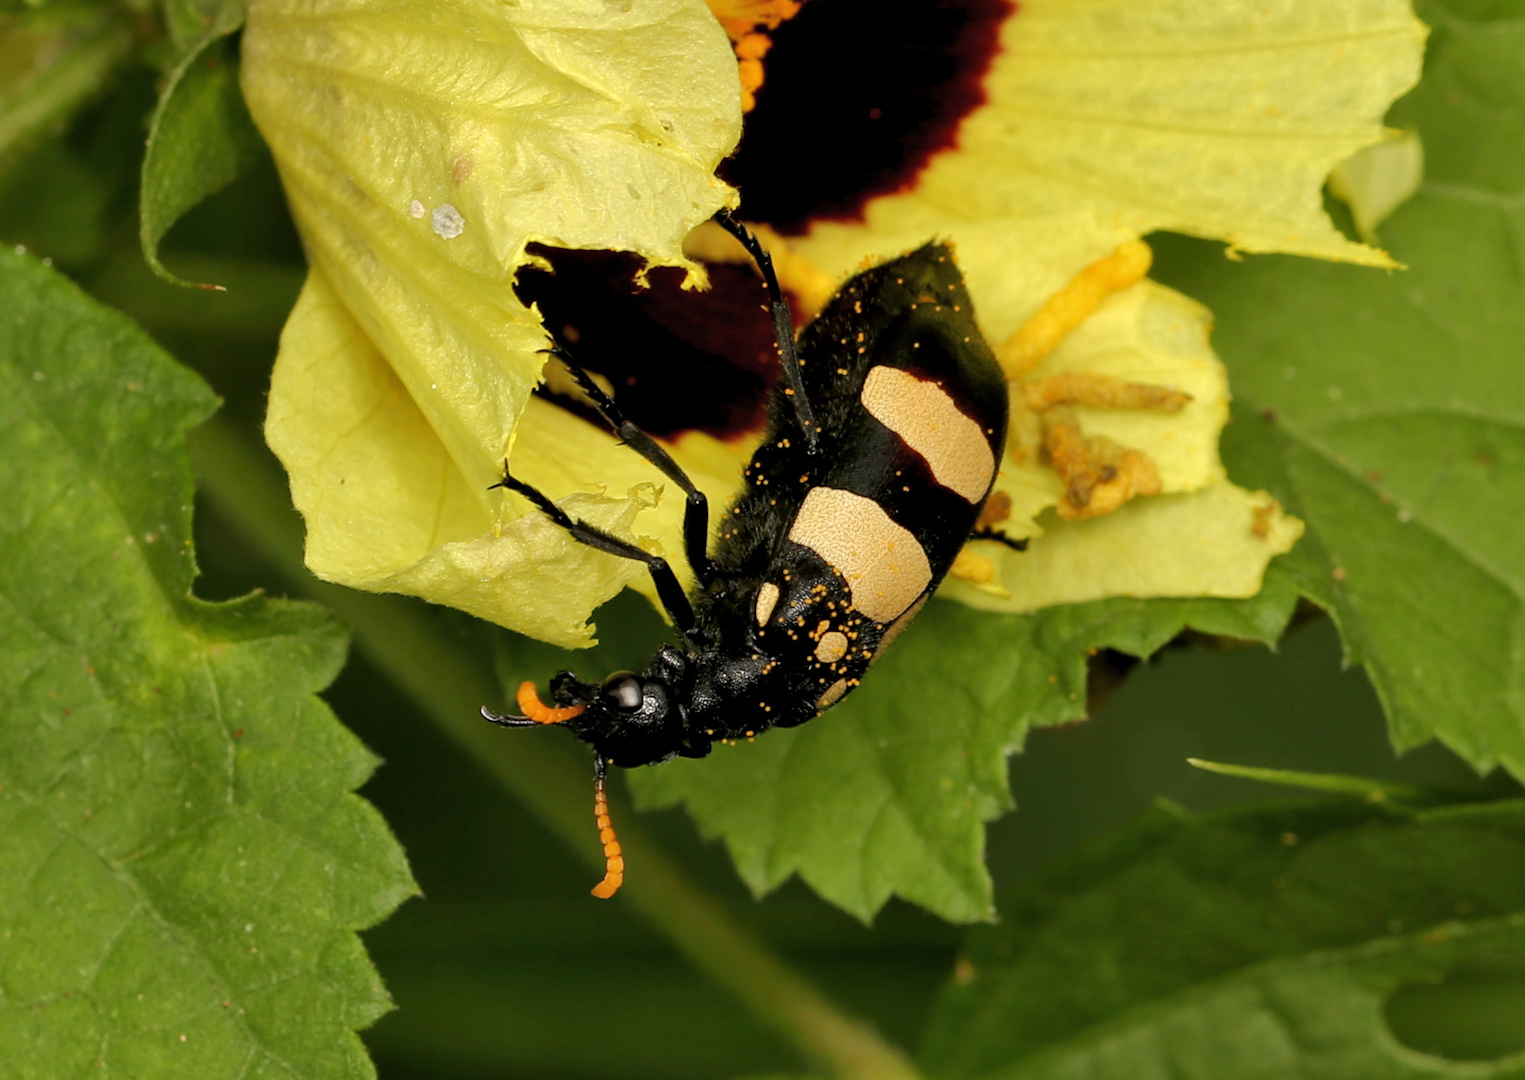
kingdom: Animalia
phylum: Arthropoda
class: Insecta
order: Coleoptera
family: Meloidae
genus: Hycleus
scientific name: Hycleus
